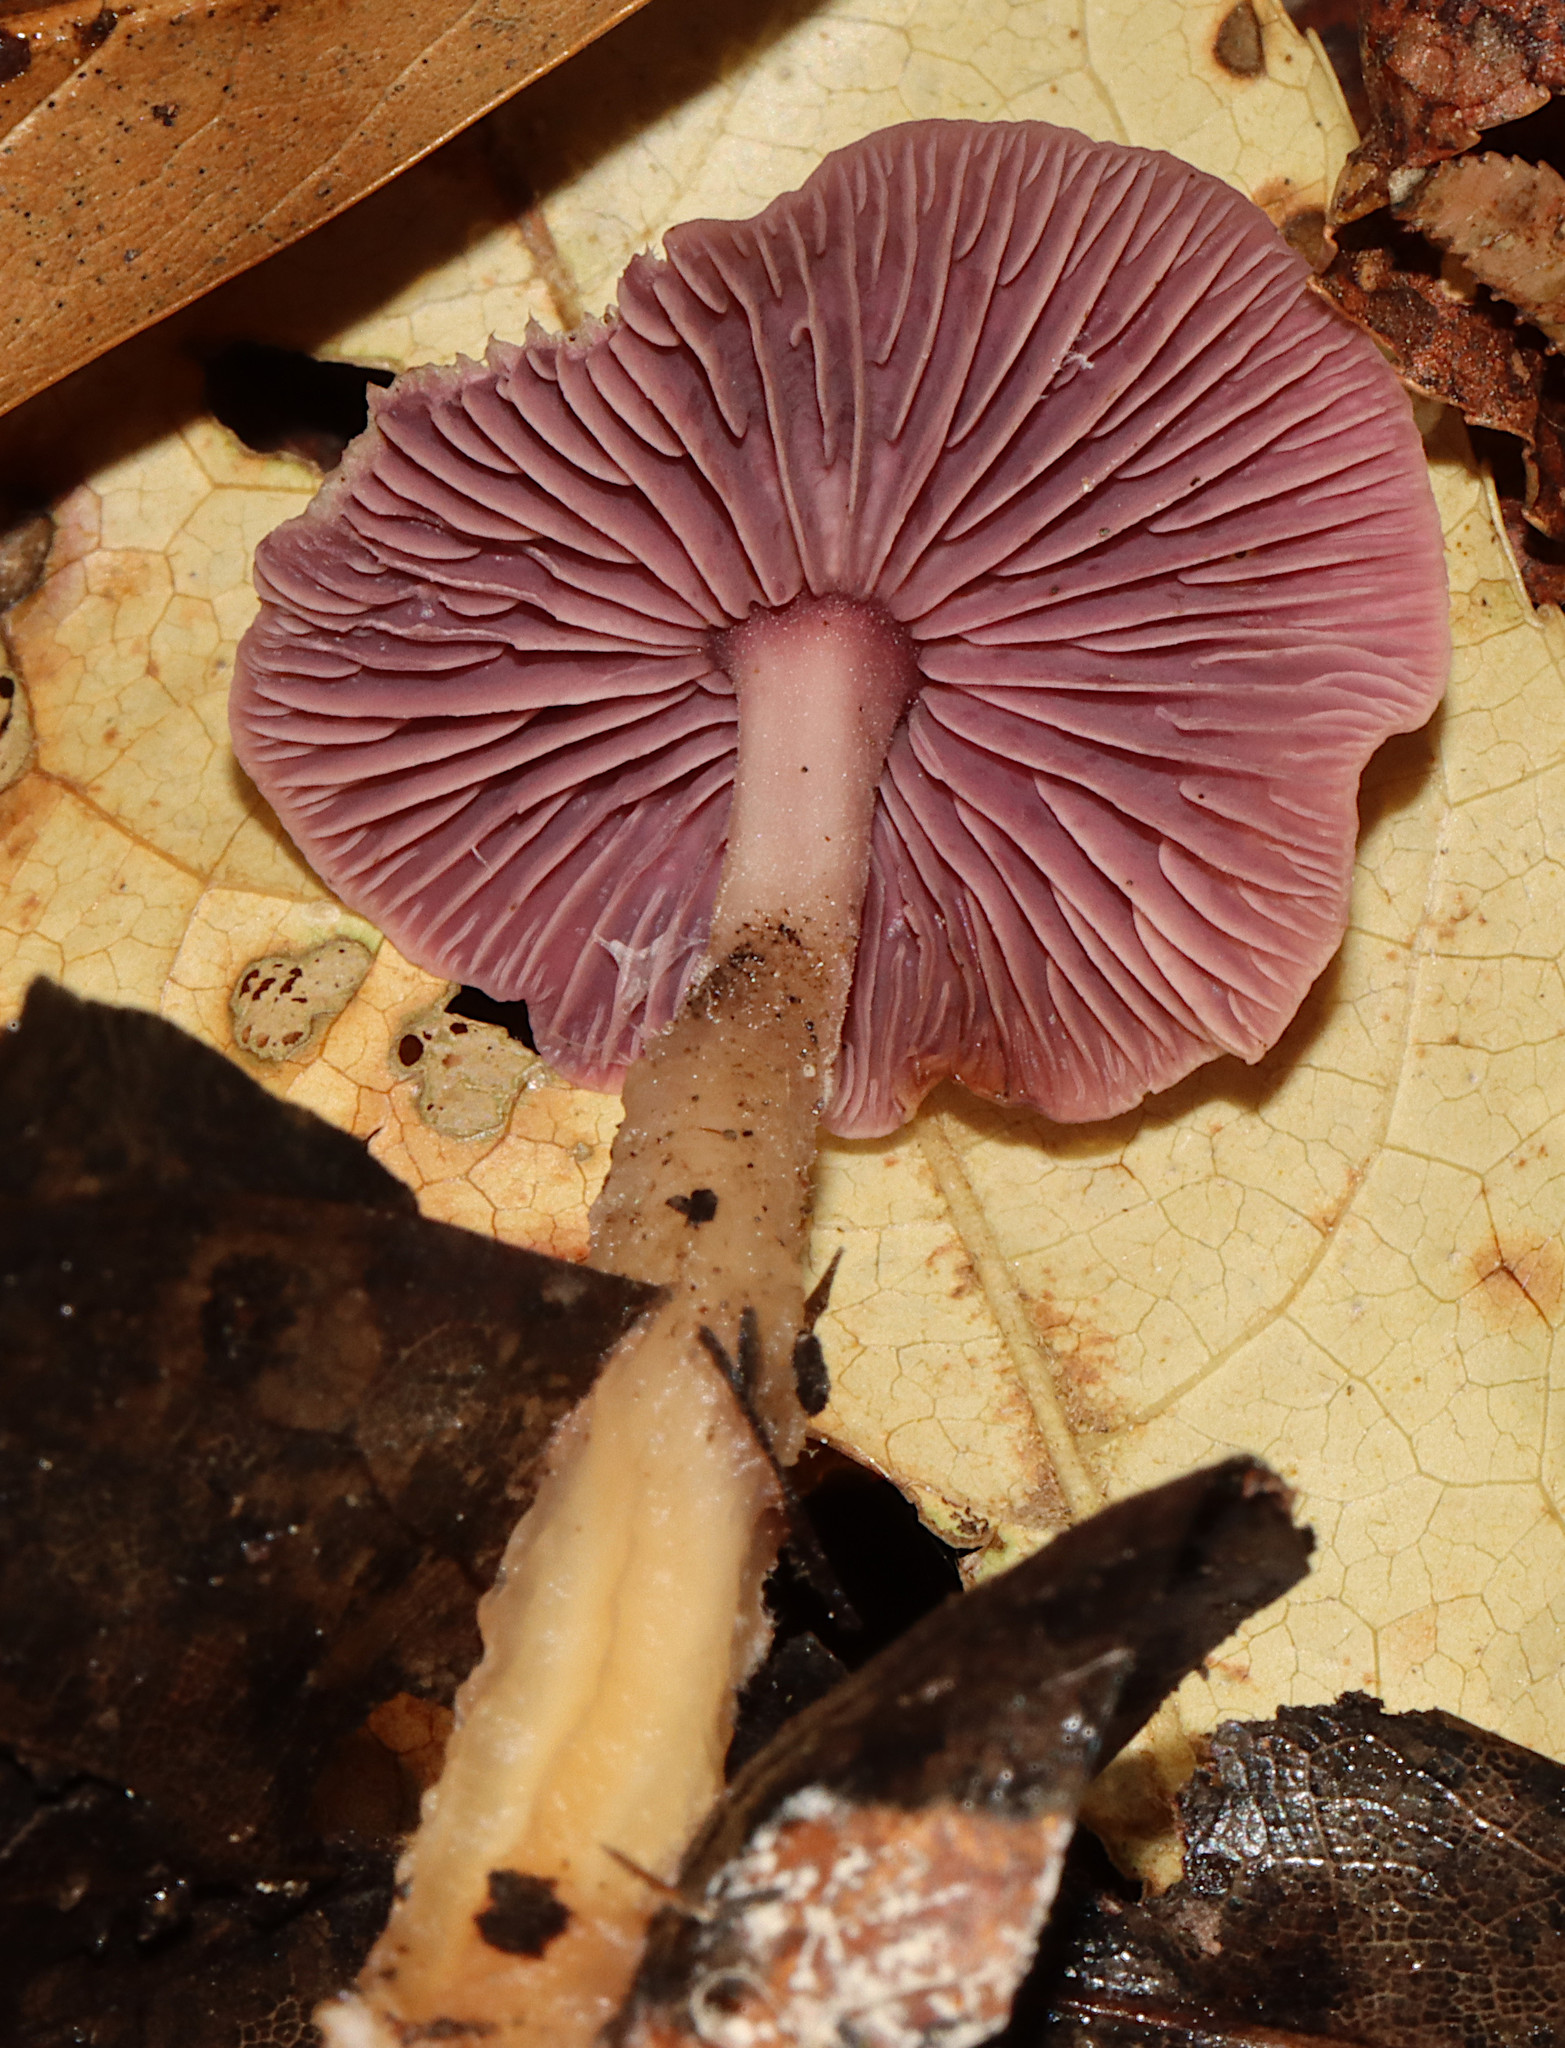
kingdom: Fungi
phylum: Basidiomycota
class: Agaricomycetes
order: Agaricales
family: Omphalotaceae
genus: Gymnopus
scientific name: Gymnopus iocephalus
